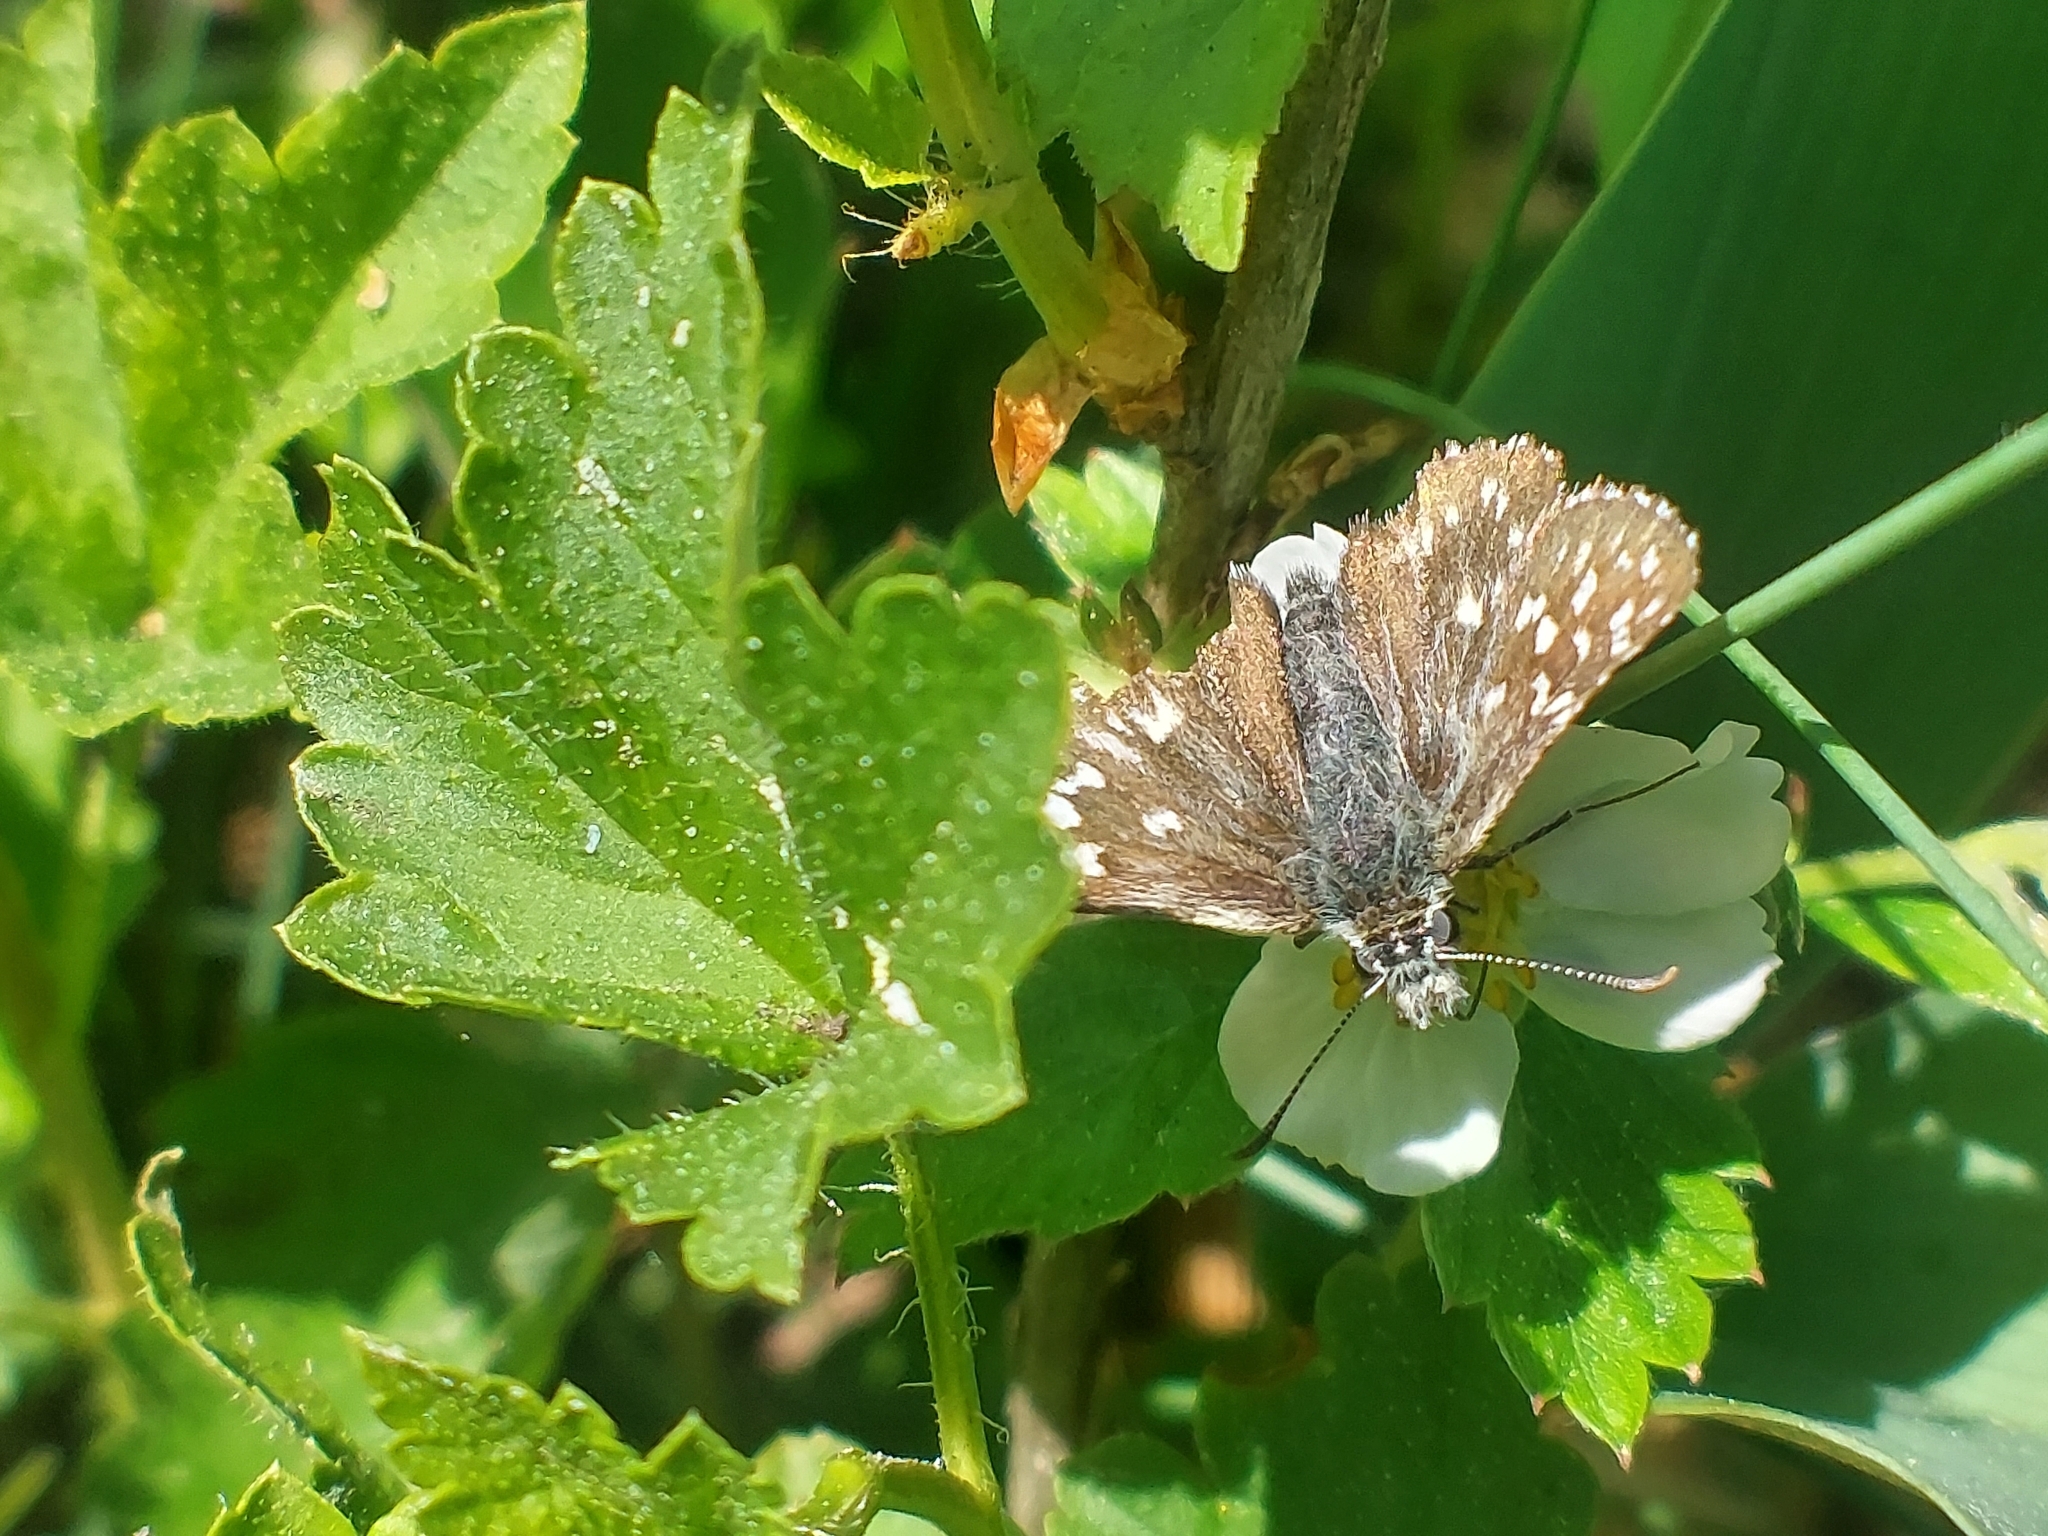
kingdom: Animalia
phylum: Arthropoda
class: Insecta
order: Lepidoptera
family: Hesperiidae
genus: Pyrgus
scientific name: Pyrgus malvae
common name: Grizzled skipper
